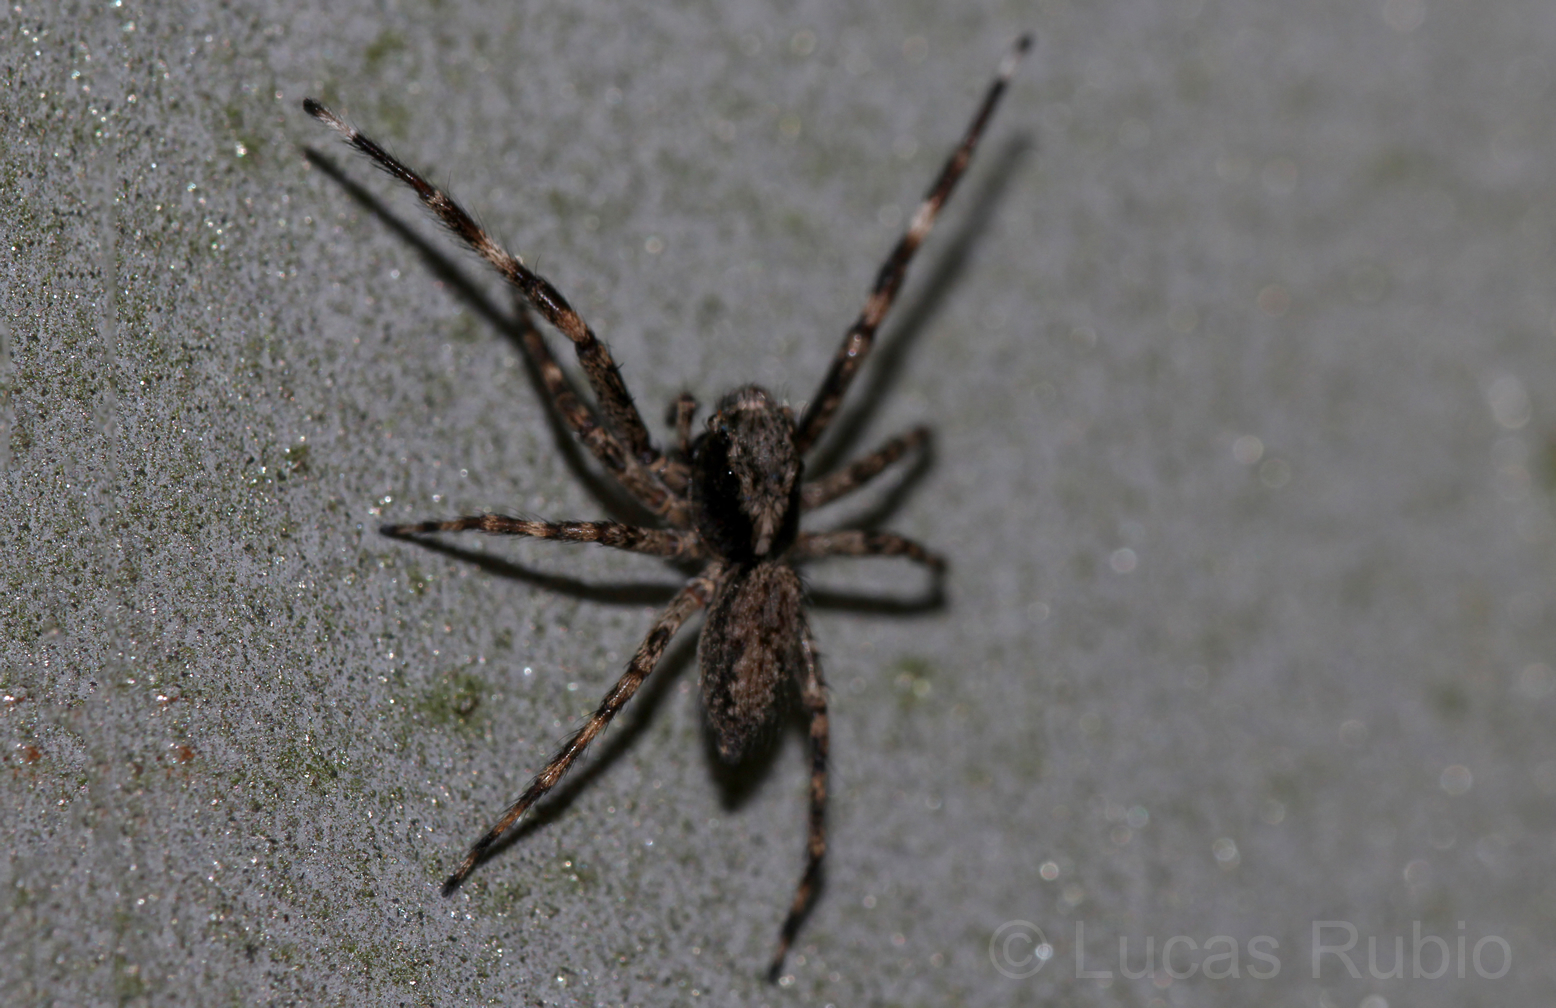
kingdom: Animalia
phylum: Arthropoda
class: Arachnida
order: Araneae
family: Salticidae
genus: Titanattus
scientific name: Titanattus andinus
